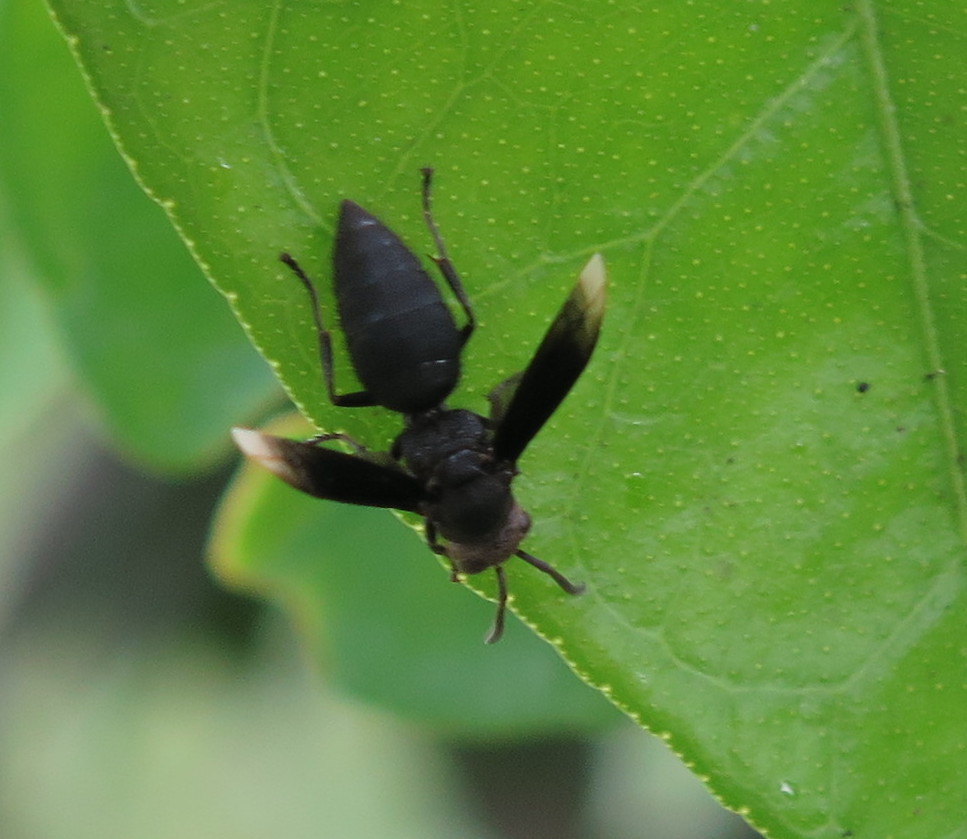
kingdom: Animalia
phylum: Arthropoda
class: Insecta
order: Hymenoptera
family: Vespidae
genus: Parachartergus
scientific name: Parachartergus fraternus
